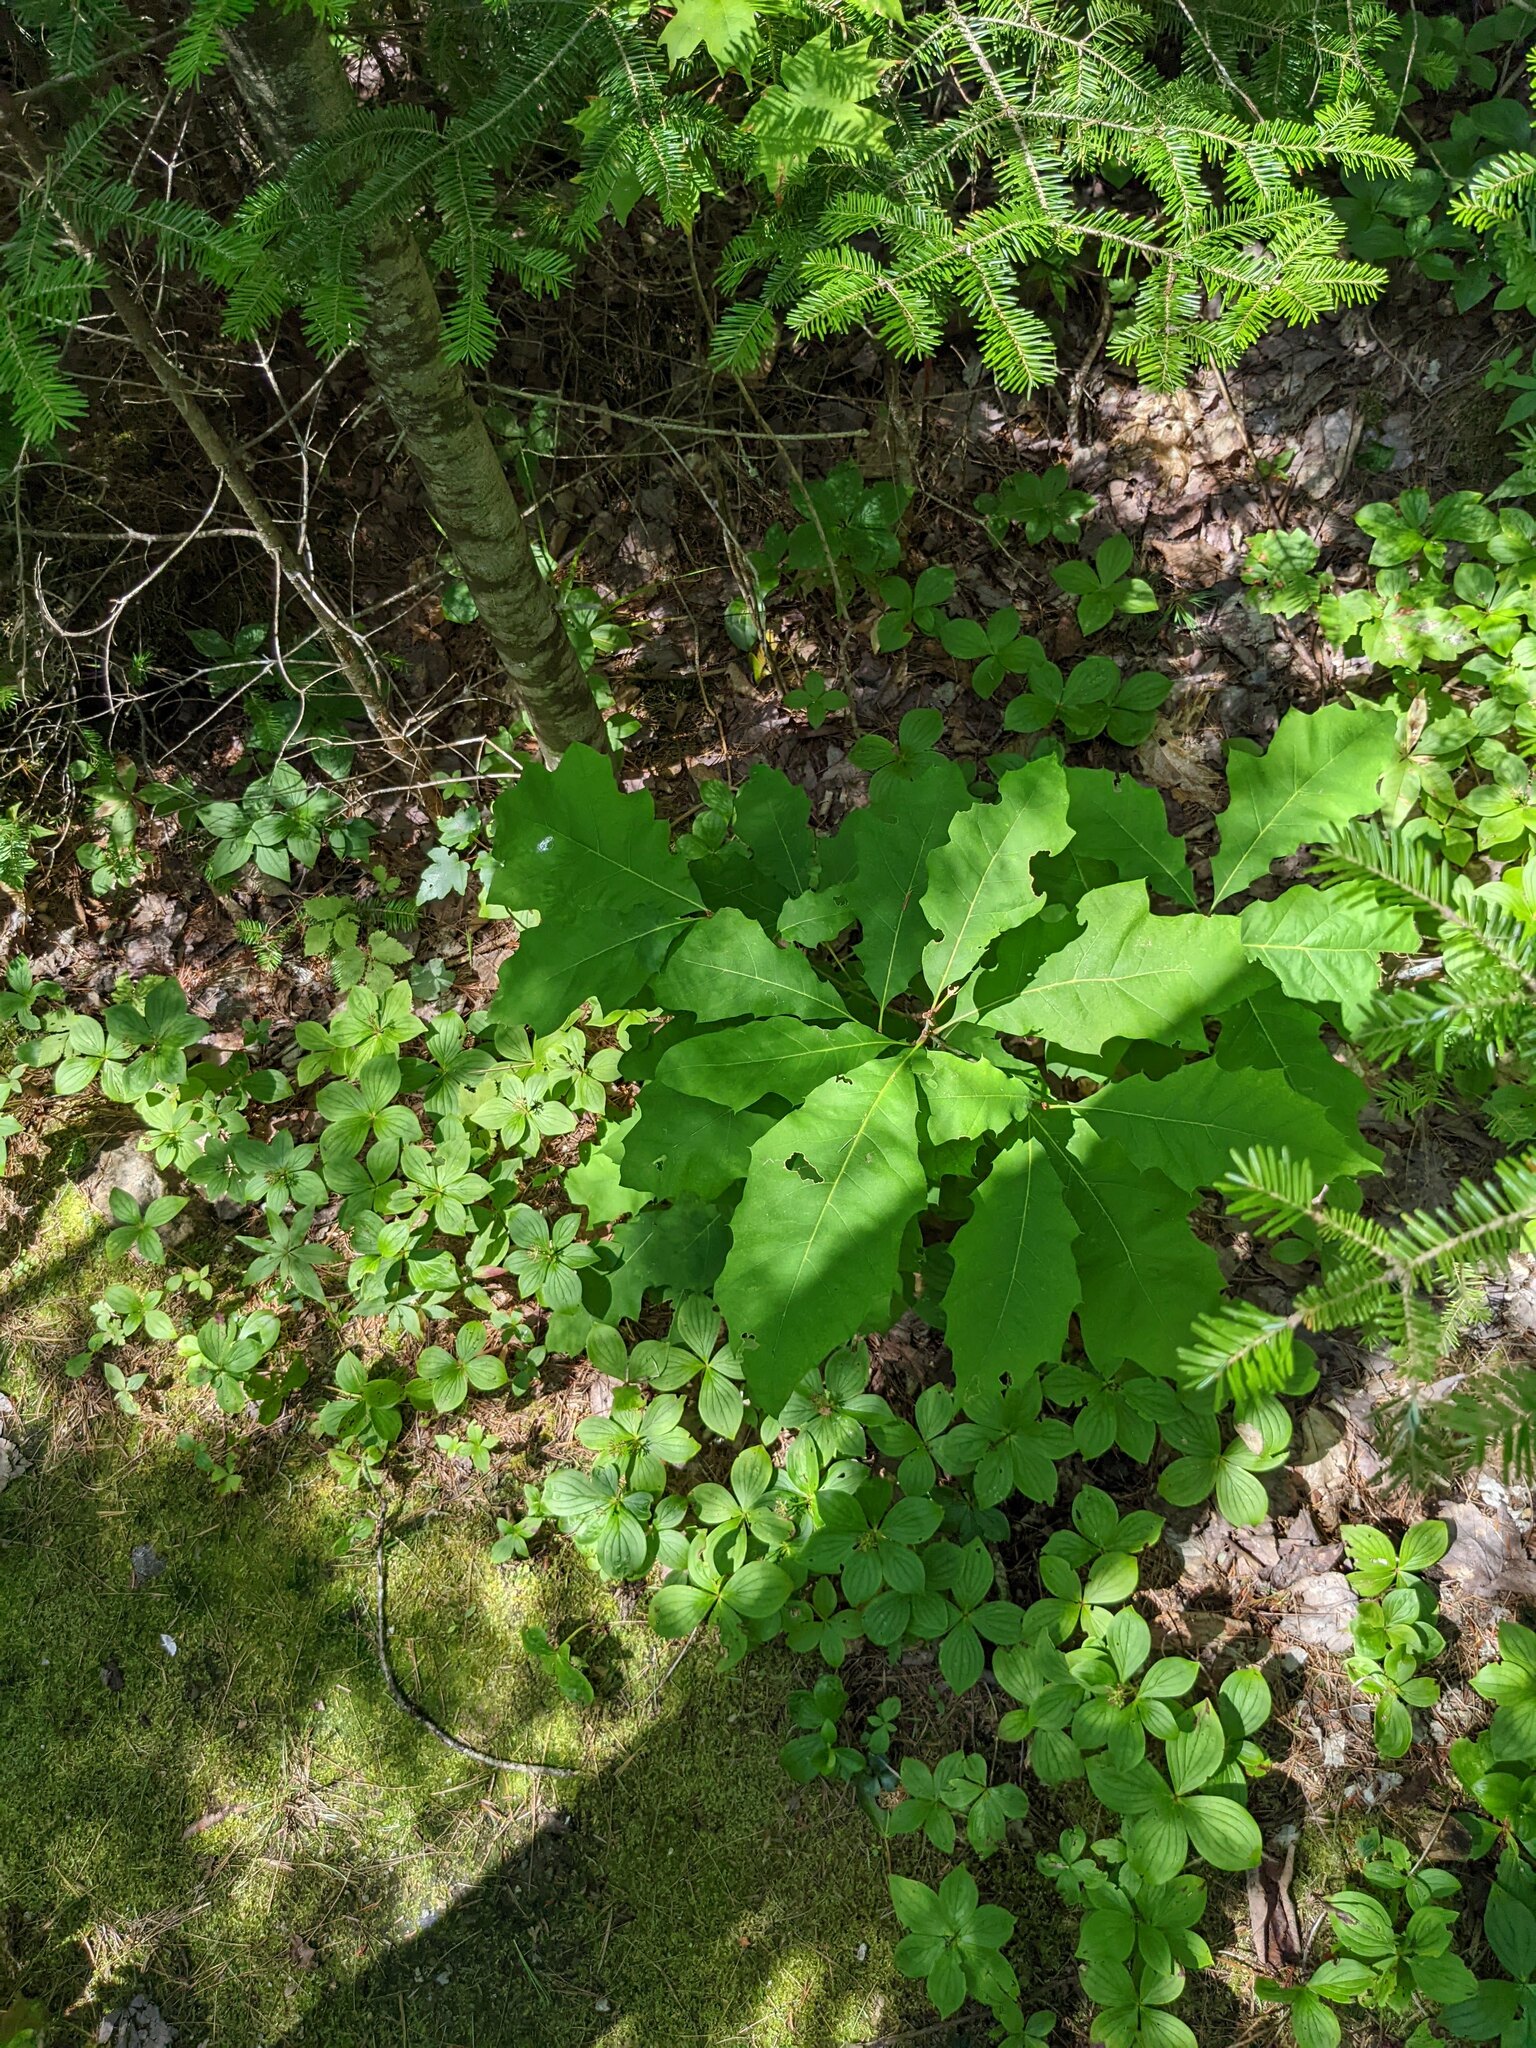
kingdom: Plantae
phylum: Tracheophyta
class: Pinopsida
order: Pinales
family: Pinaceae
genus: Abies
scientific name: Abies balsamea
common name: Balsam fir
